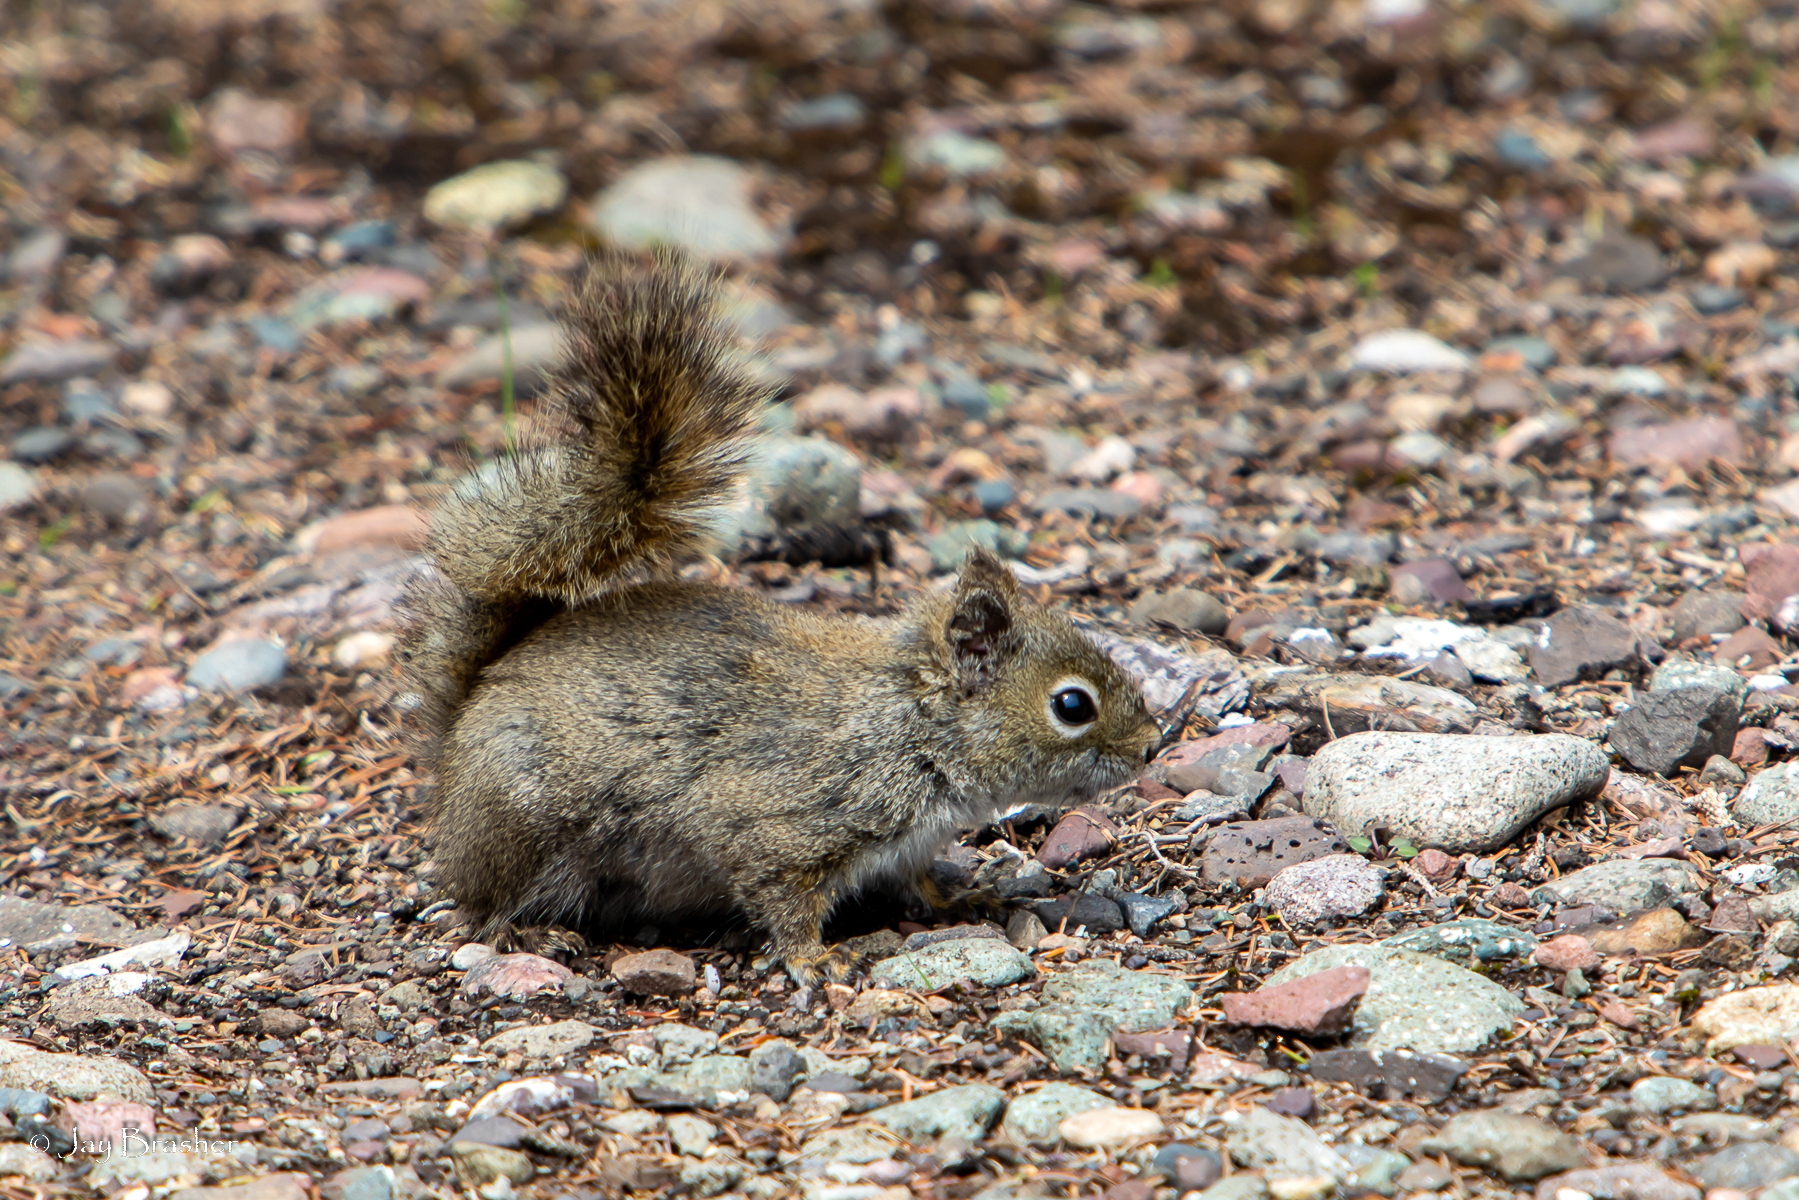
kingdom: Animalia
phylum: Chordata
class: Mammalia
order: Rodentia
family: Sciuridae
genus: Tamiasciurus
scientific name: Tamiasciurus hudsonicus
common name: Red squirrel
